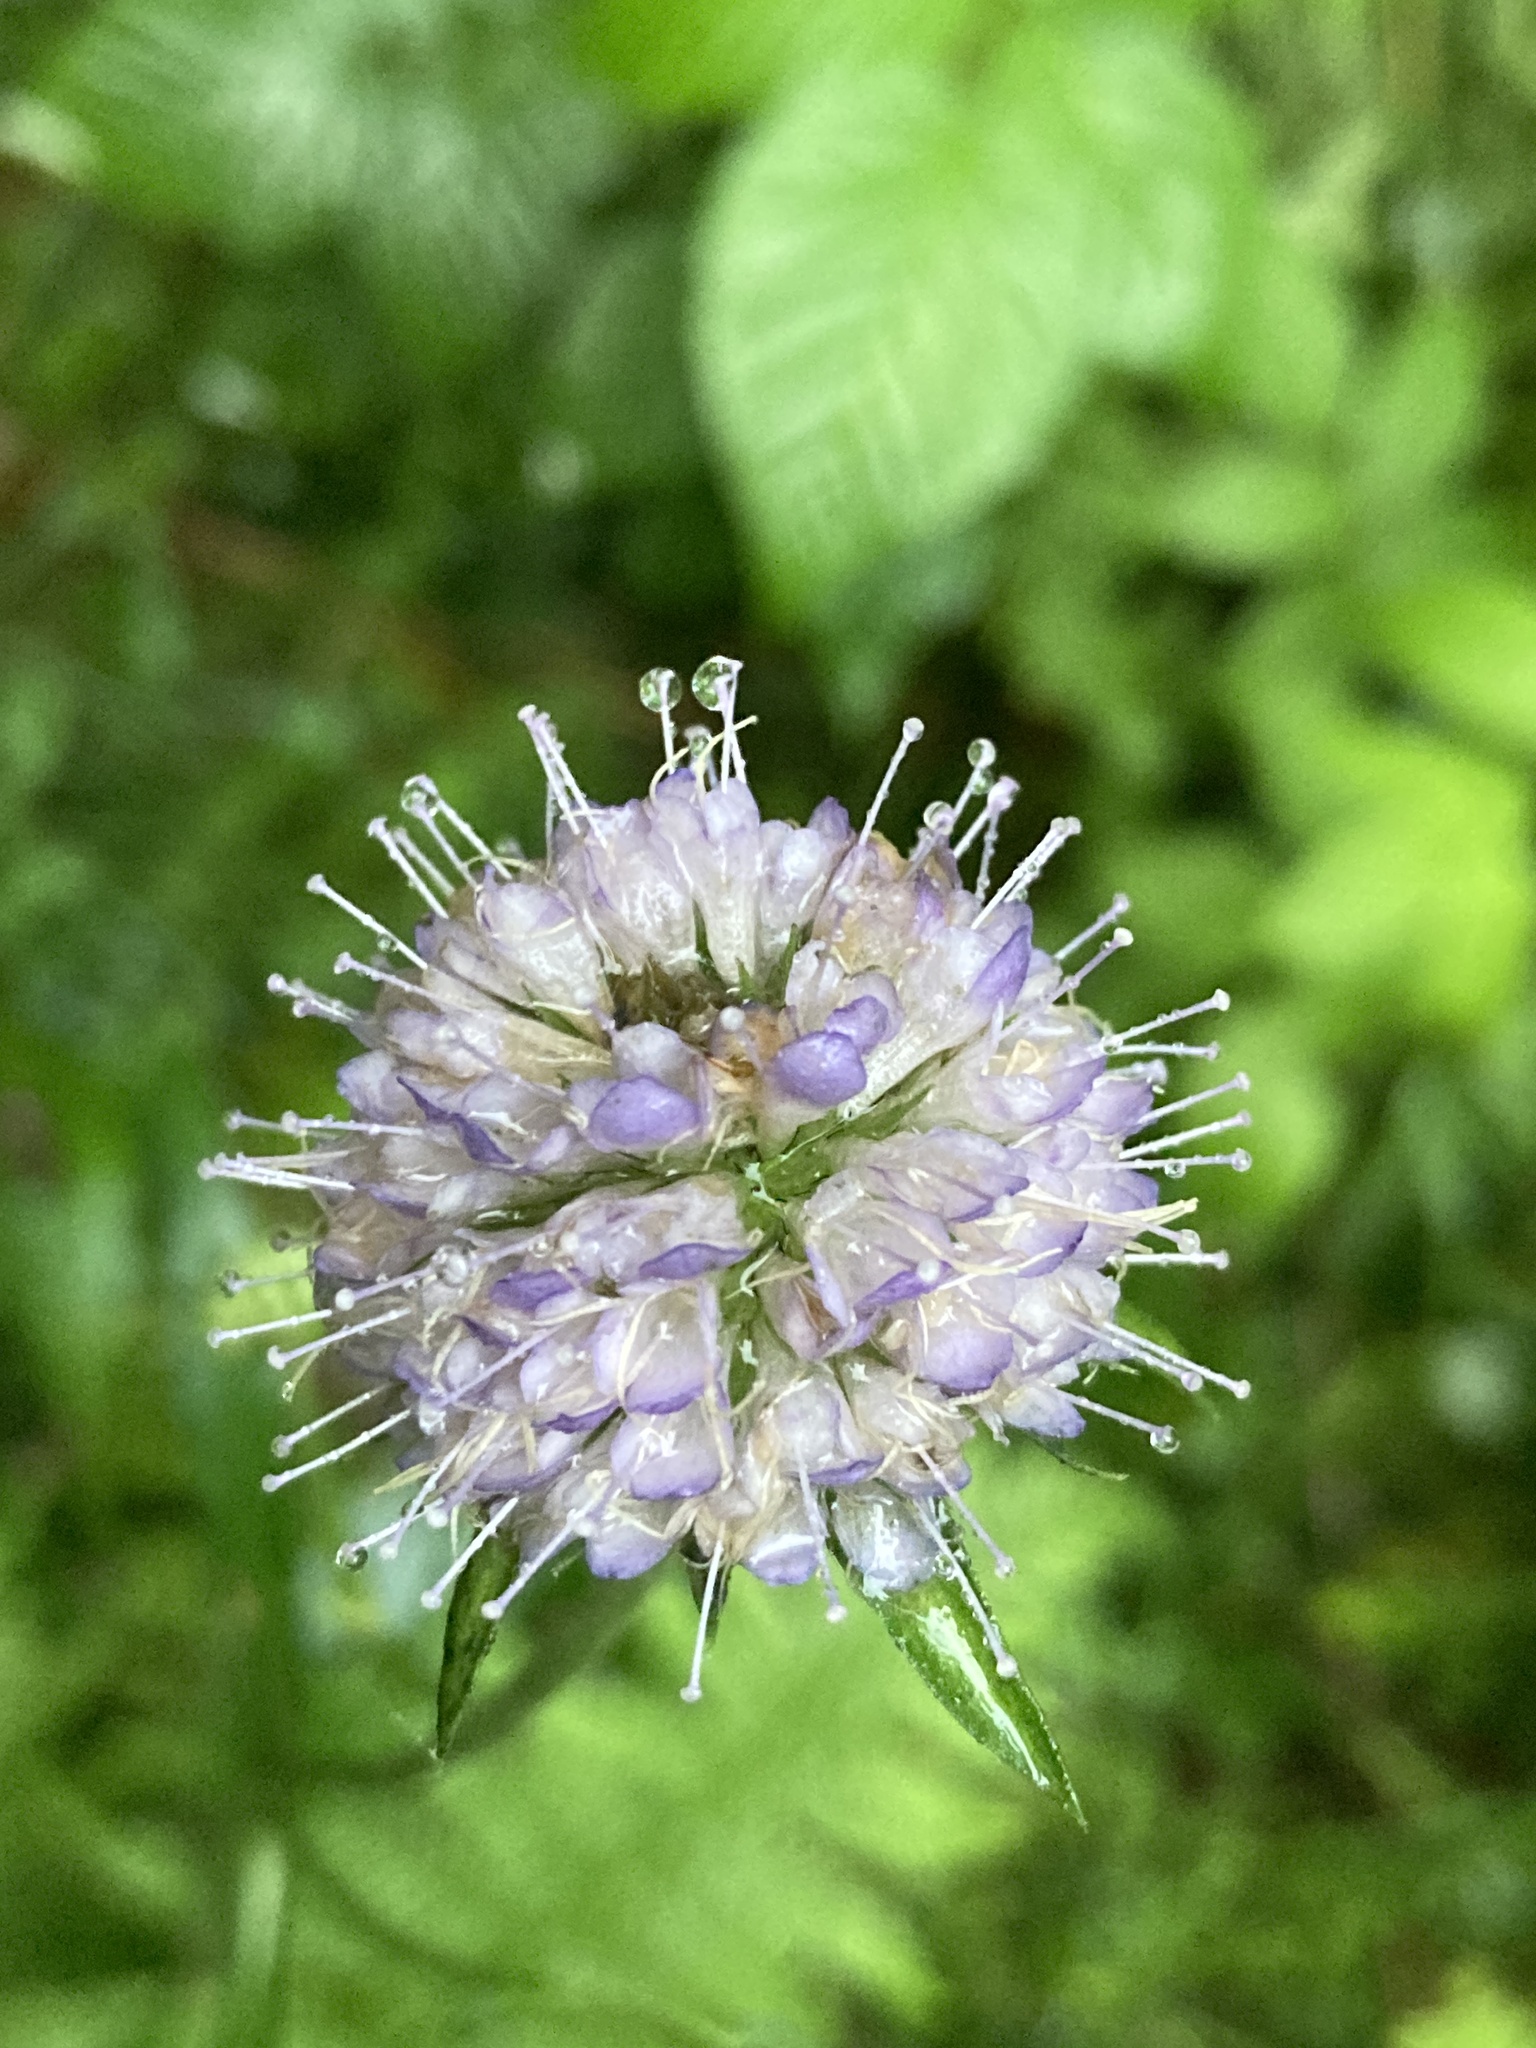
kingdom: Plantae
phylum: Tracheophyta
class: Magnoliopsida
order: Dipsacales
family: Caprifoliaceae
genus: Succisa
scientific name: Succisa pratensis
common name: Devil's-bit
